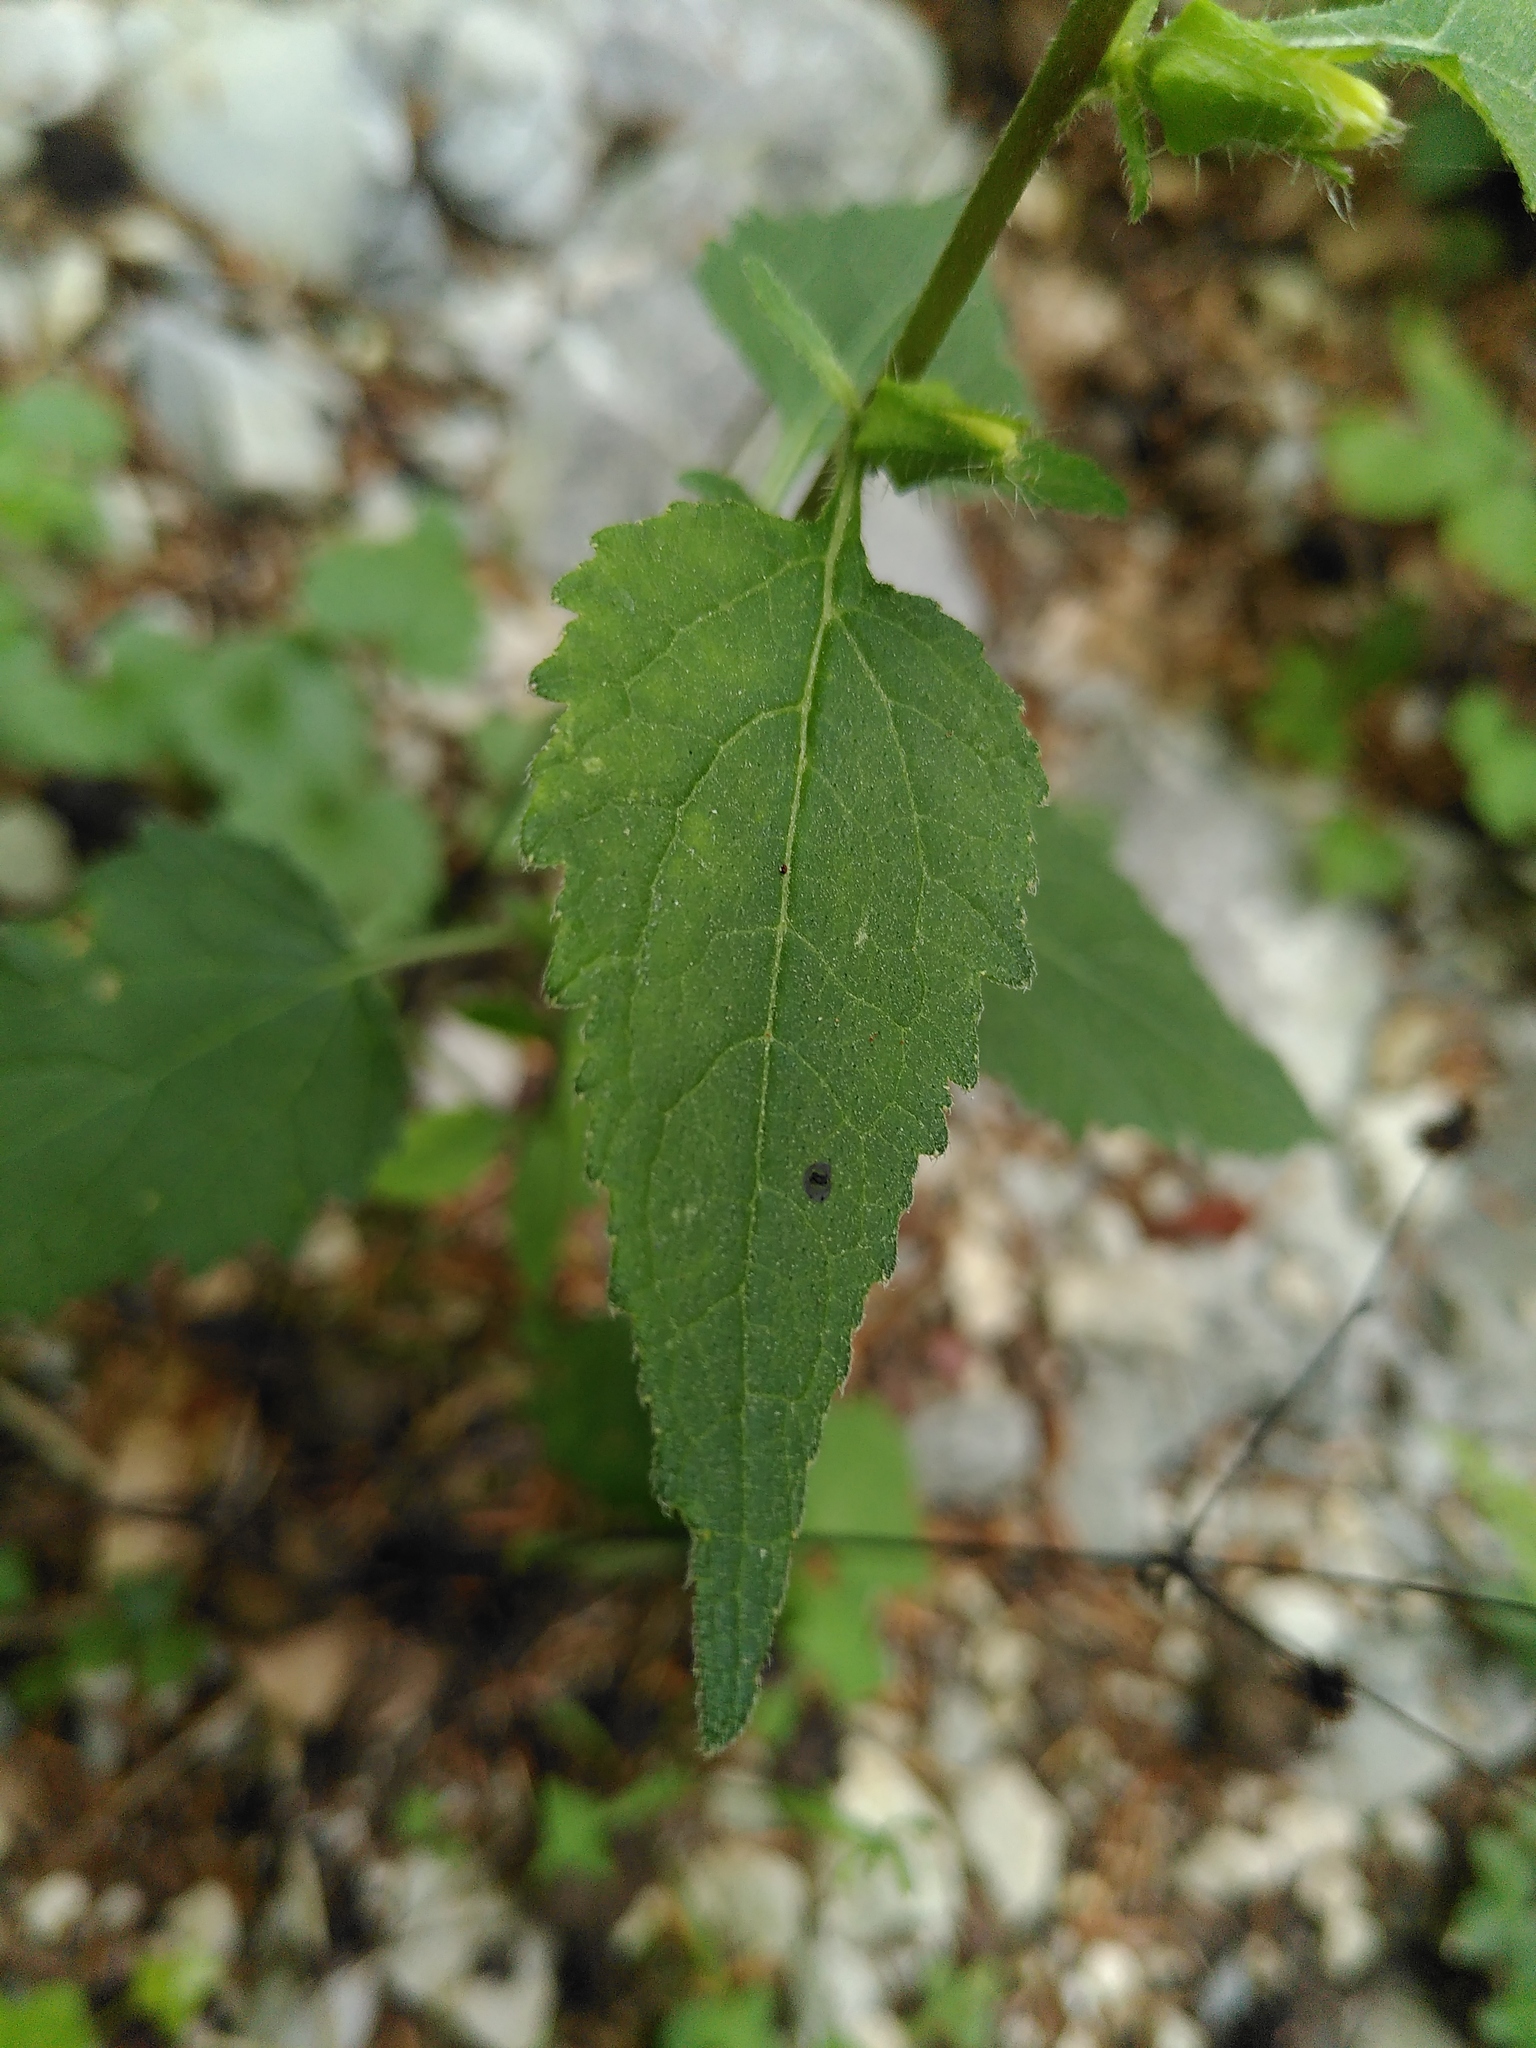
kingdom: Plantae
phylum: Tracheophyta
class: Magnoliopsida
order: Asterales
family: Campanulaceae
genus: Campanula
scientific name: Campanula trachelium
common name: Nettle-leaved bellflower
